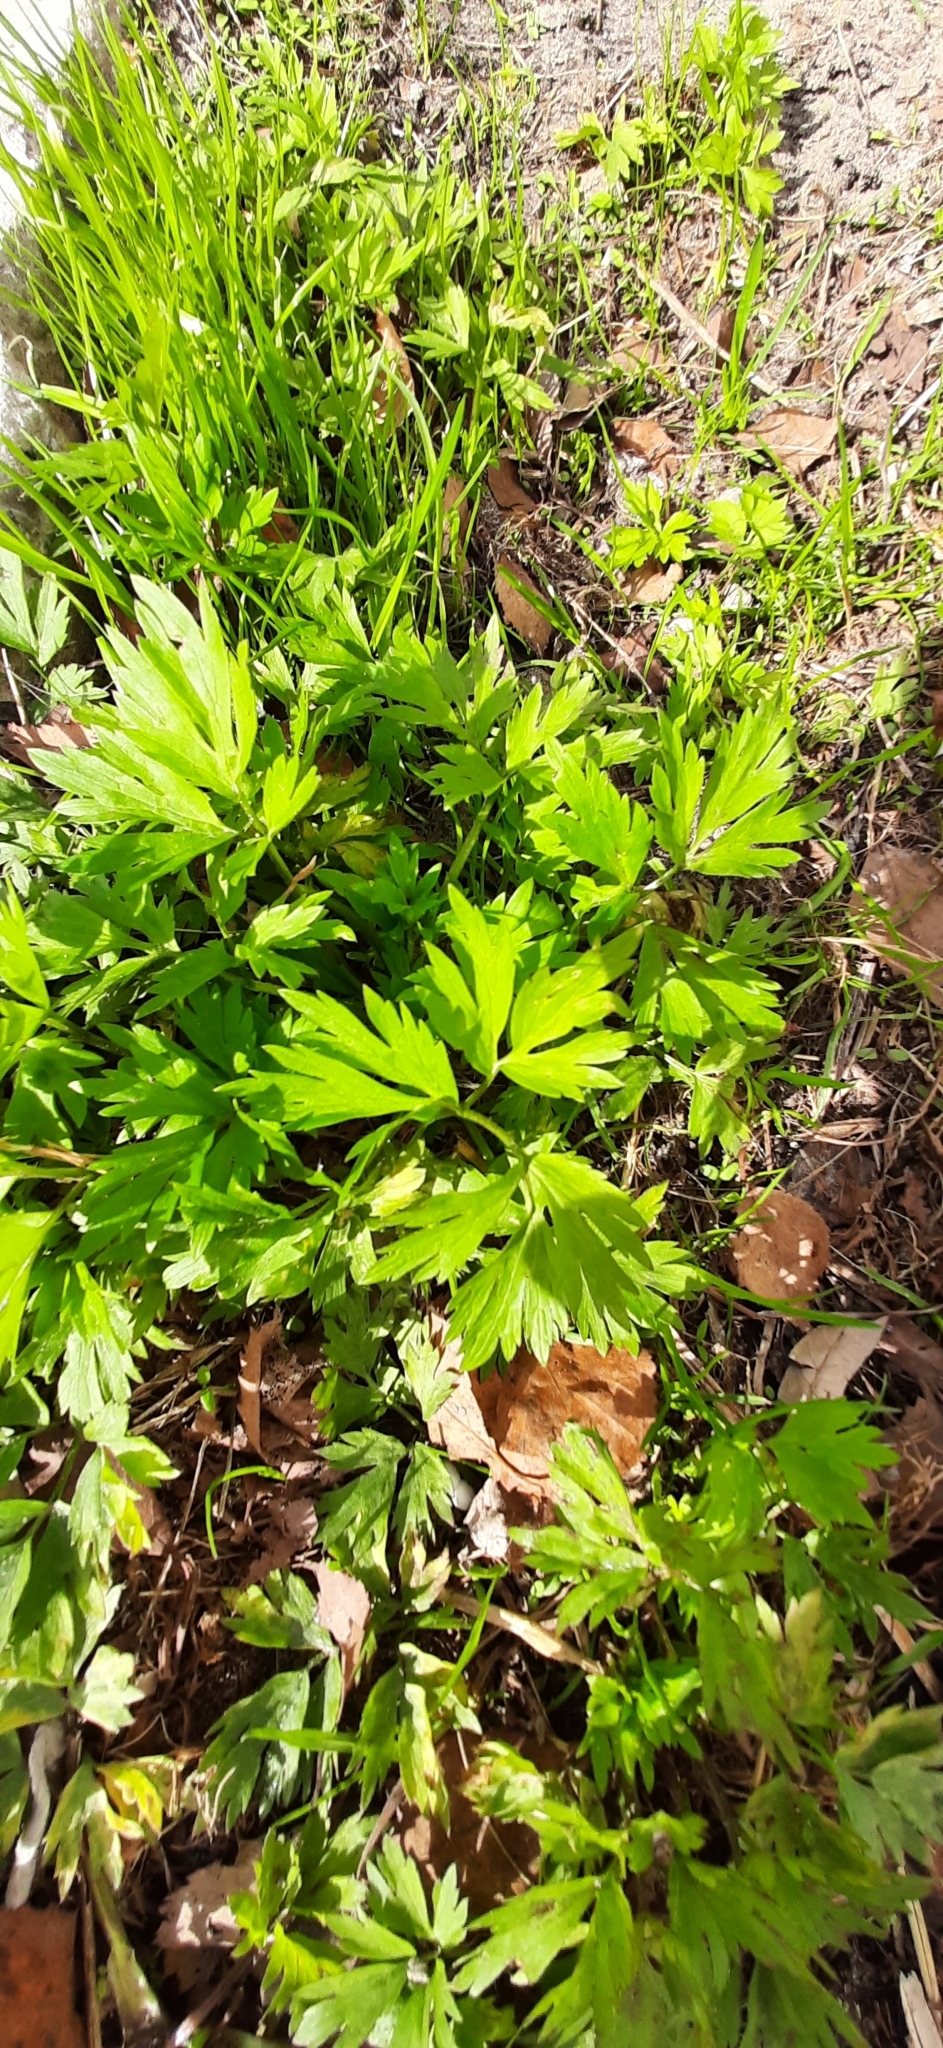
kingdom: Plantae
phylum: Tracheophyta
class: Magnoliopsida
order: Ranunculales
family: Ranunculaceae
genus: Ranunculus
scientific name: Ranunculus repens
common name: Creeping buttercup
